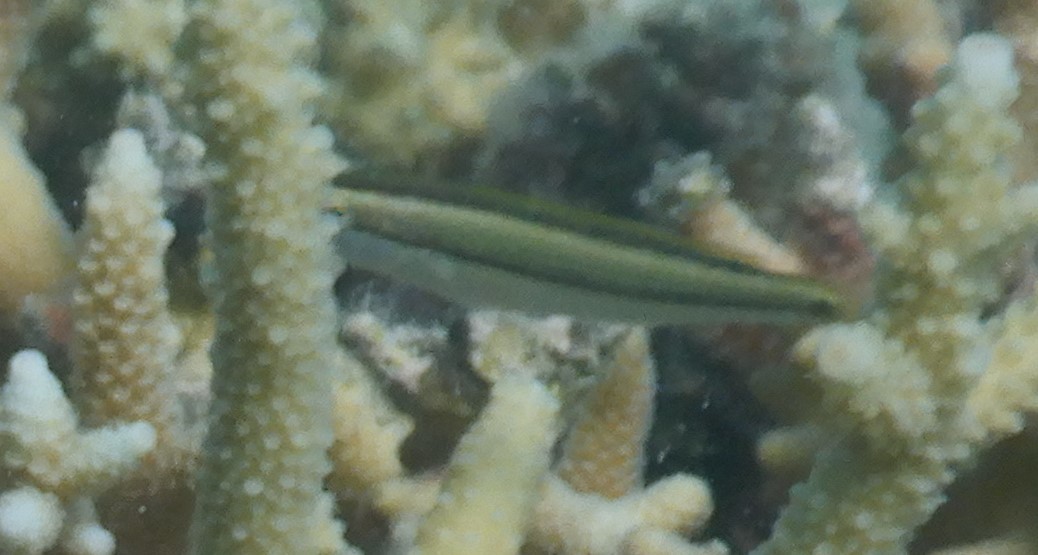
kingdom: Animalia
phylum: Chordata
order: Perciformes
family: Labridae
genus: Stethojulis
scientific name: Stethojulis interrupta
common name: Cutribbon wrasse
